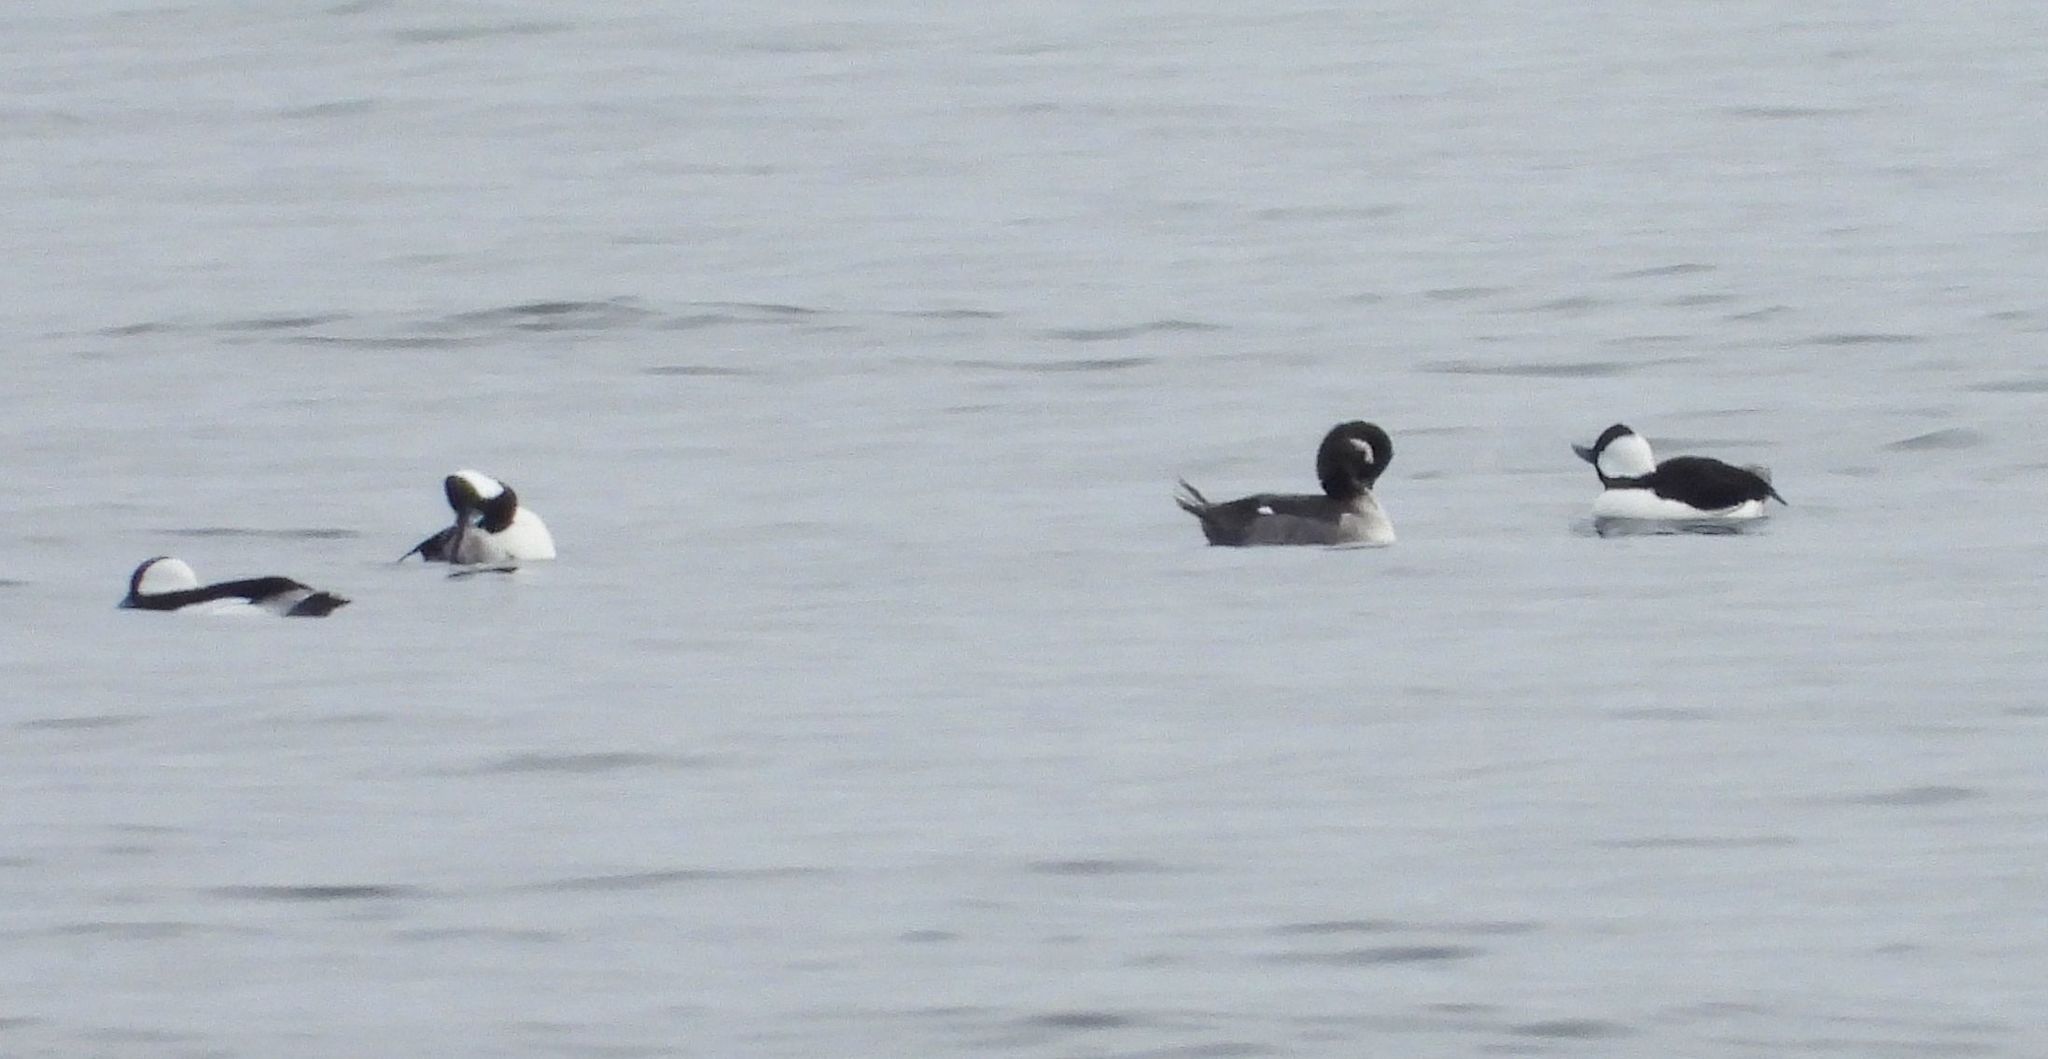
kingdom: Animalia
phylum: Chordata
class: Aves
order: Anseriformes
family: Anatidae
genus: Bucephala
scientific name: Bucephala albeola
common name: Bufflehead
